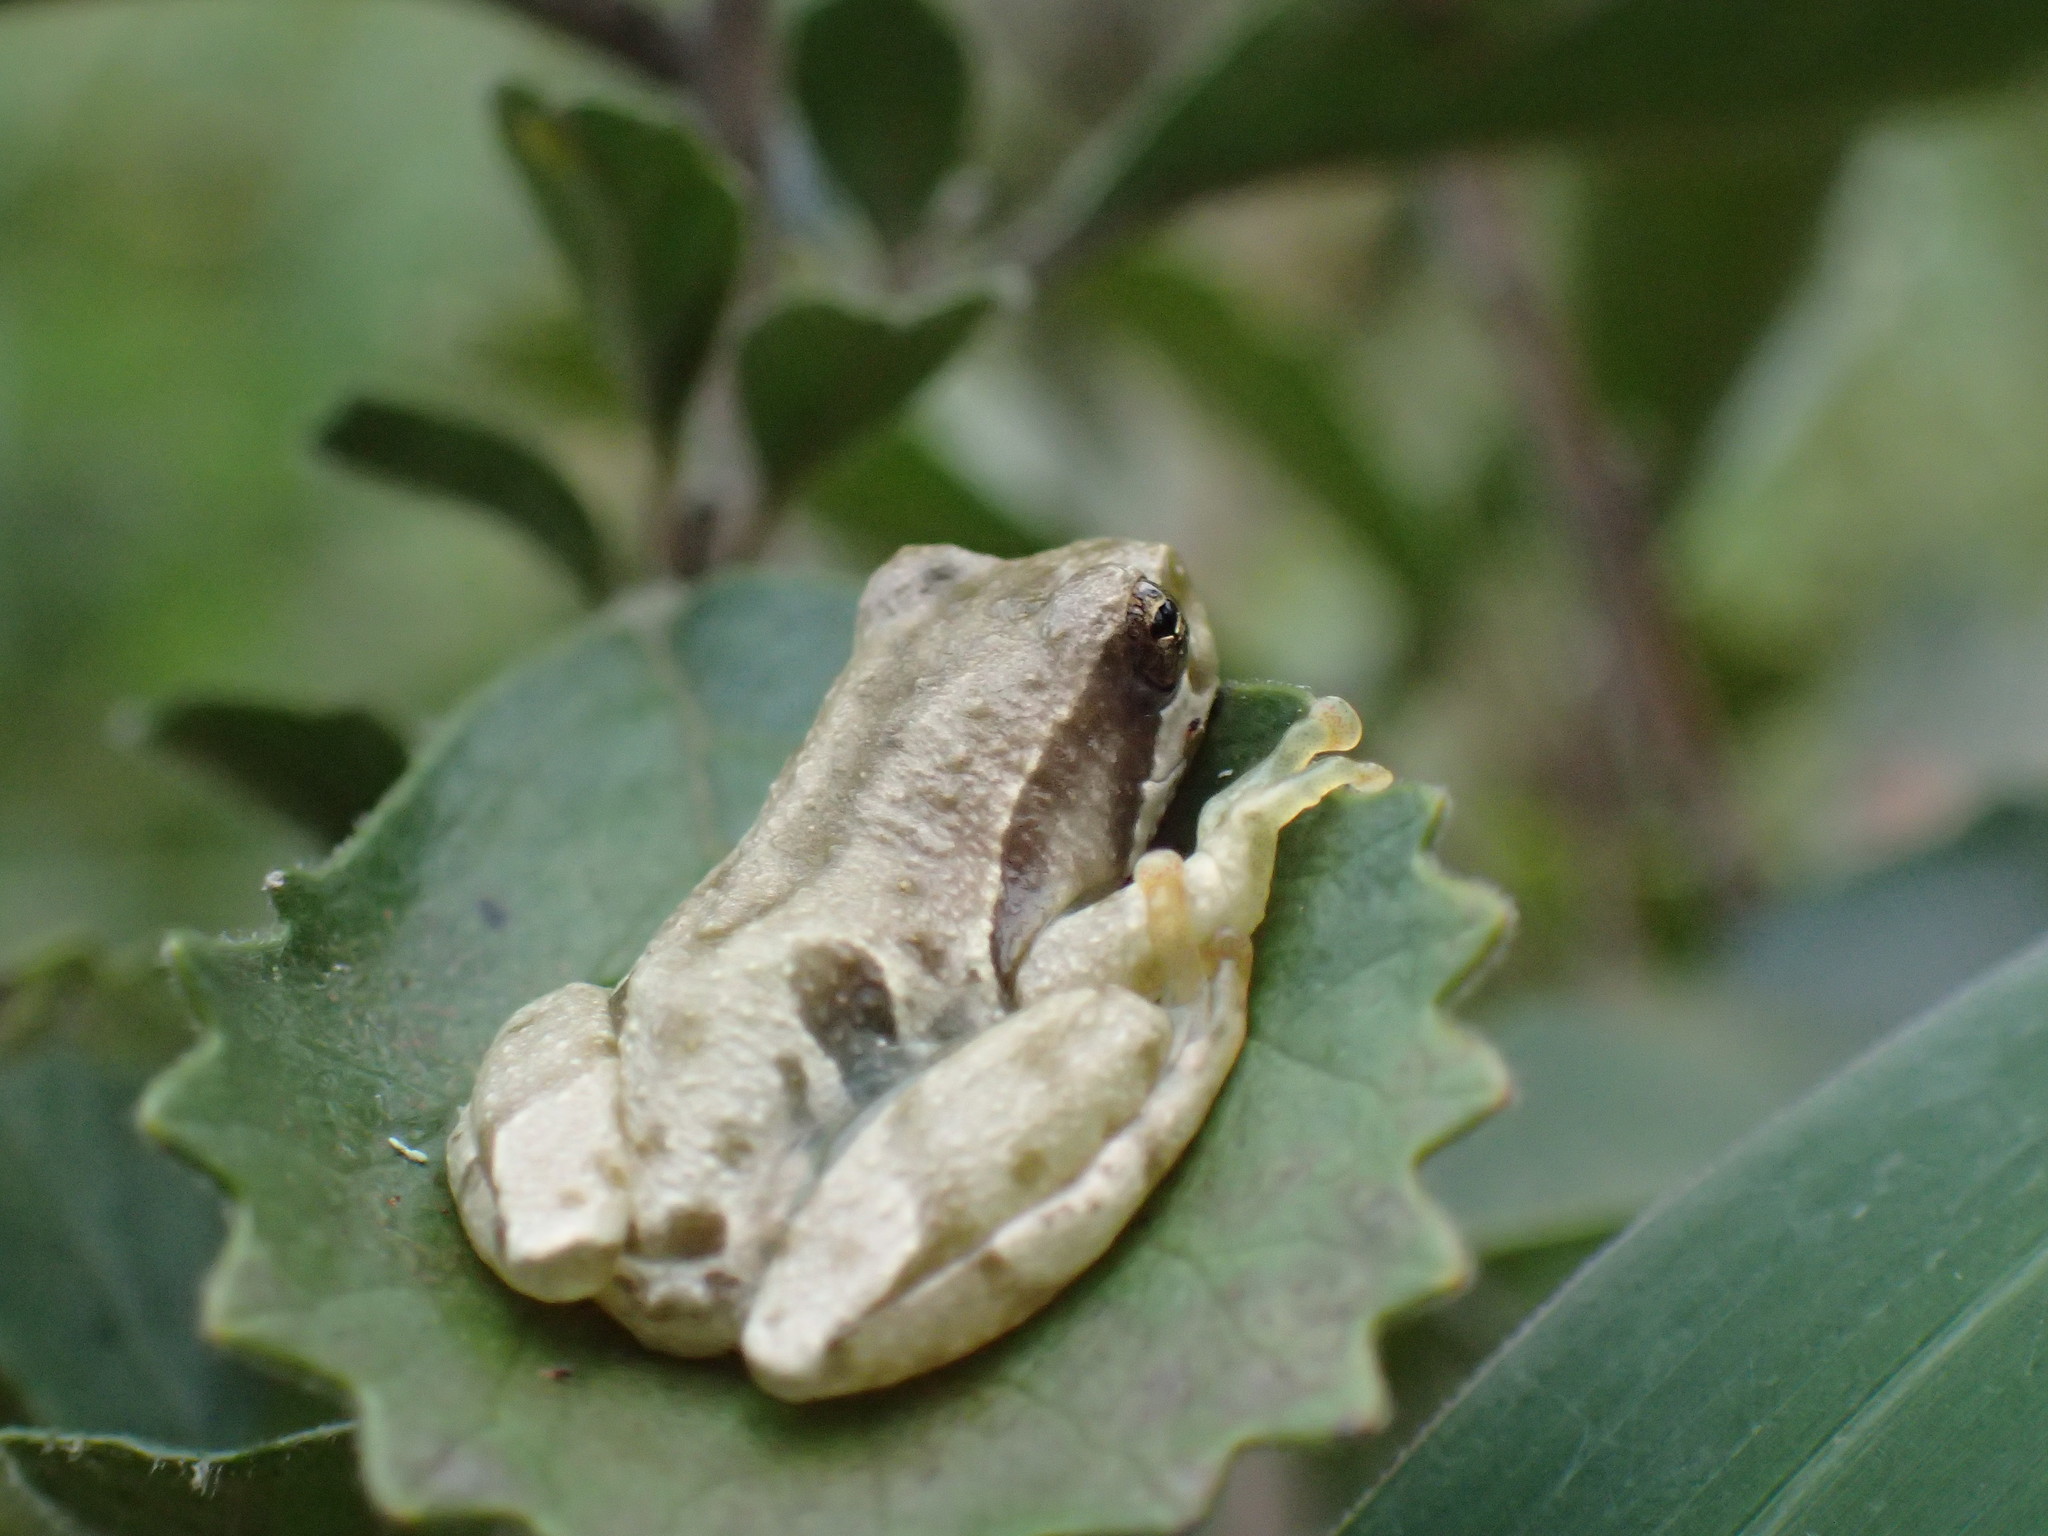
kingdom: Animalia
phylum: Chordata
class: Amphibia
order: Anura
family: Hyperoliidae
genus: Hyperolius
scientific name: Hyperolius marmoratus
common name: Painted reed frog
